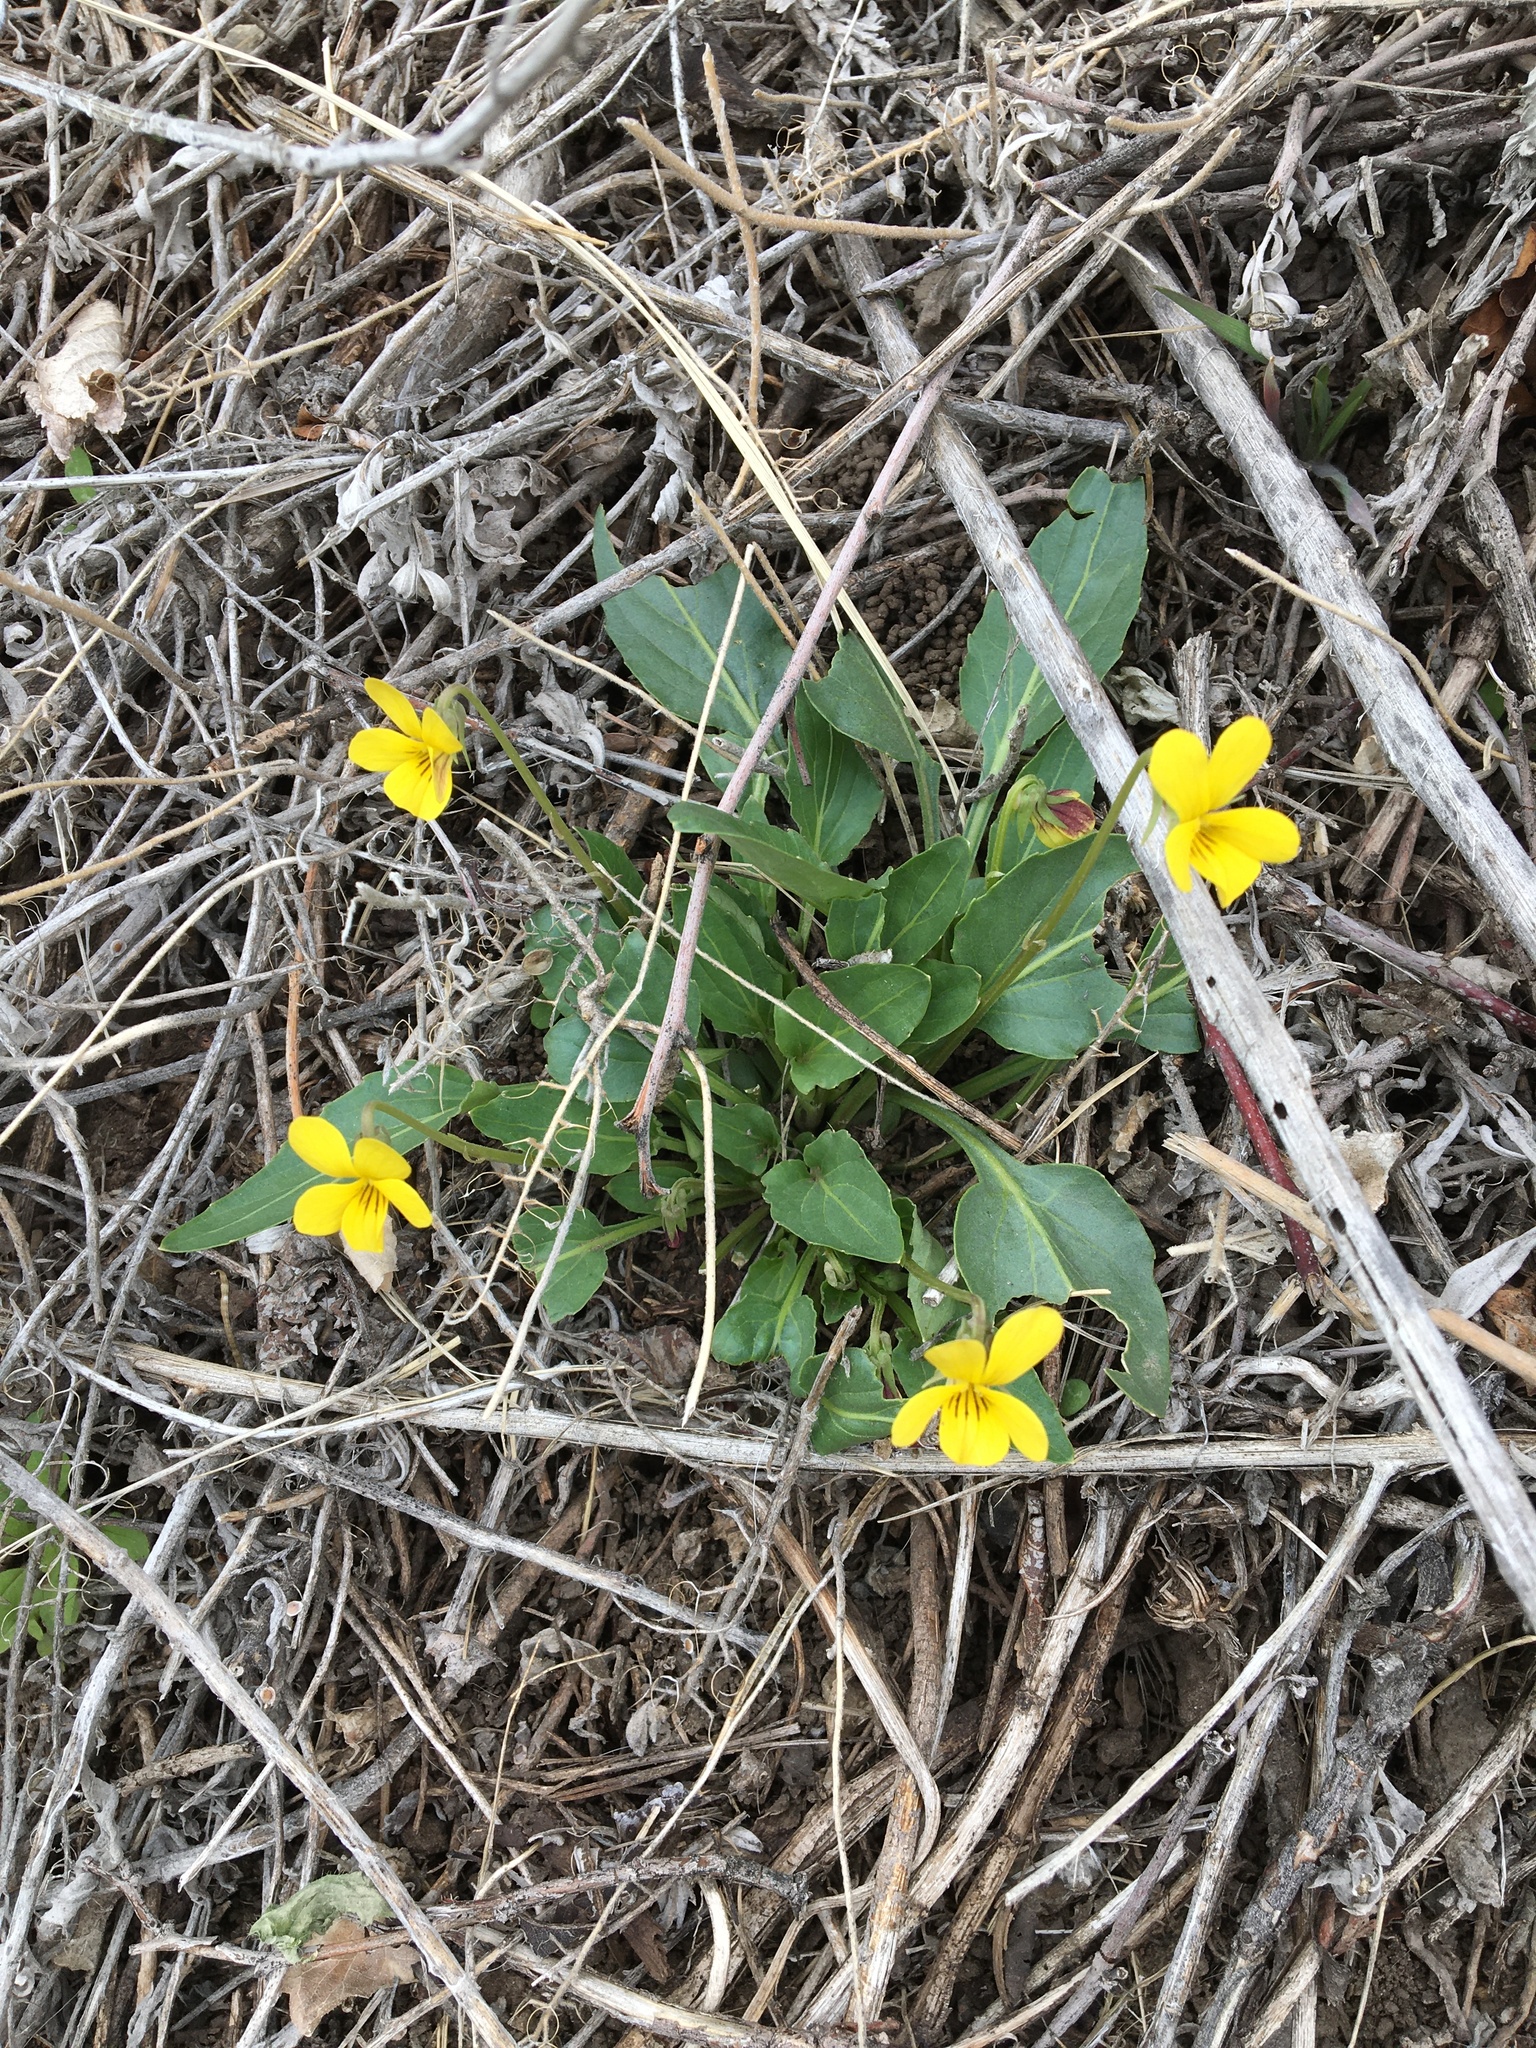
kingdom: Plantae
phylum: Tracheophyta
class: Magnoliopsida
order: Malpighiales
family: Violaceae
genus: Viola
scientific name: Viola purpurea
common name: Pine violet
